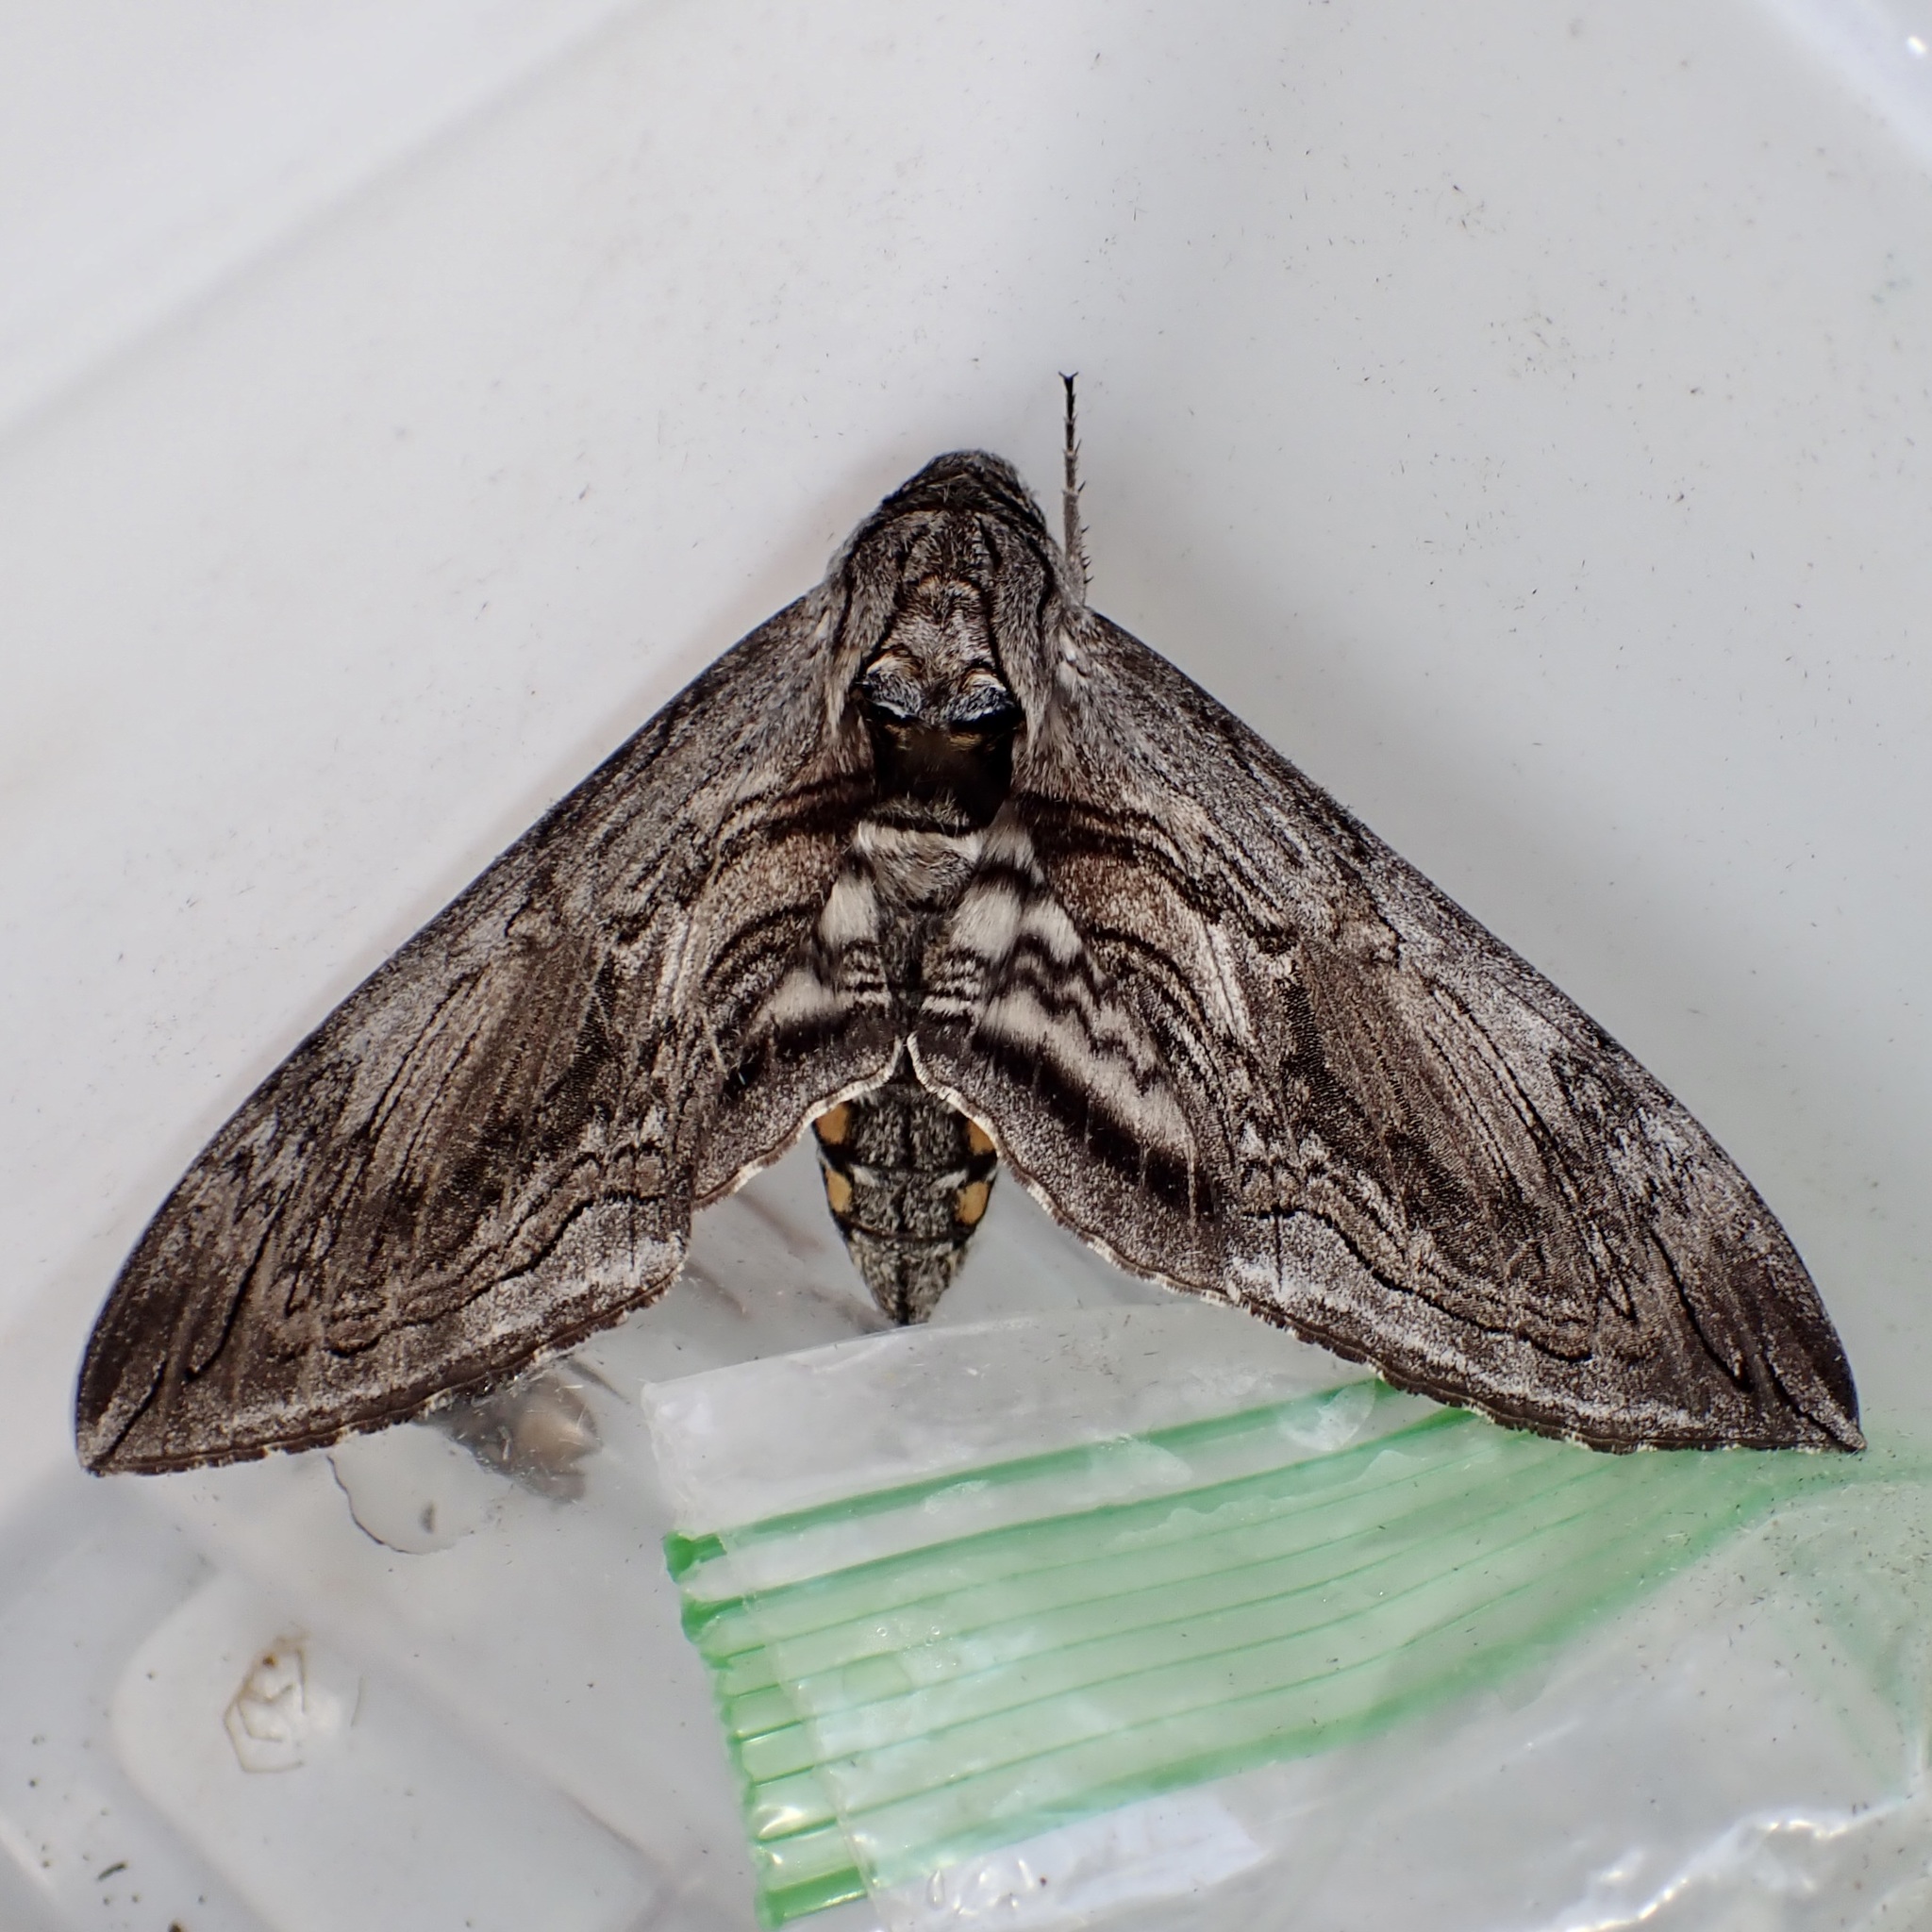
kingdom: Animalia
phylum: Arthropoda
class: Insecta
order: Lepidoptera
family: Sphingidae
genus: Manduca
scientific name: Manduca quinquemaculatus
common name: Five-spotted hawk-moth
